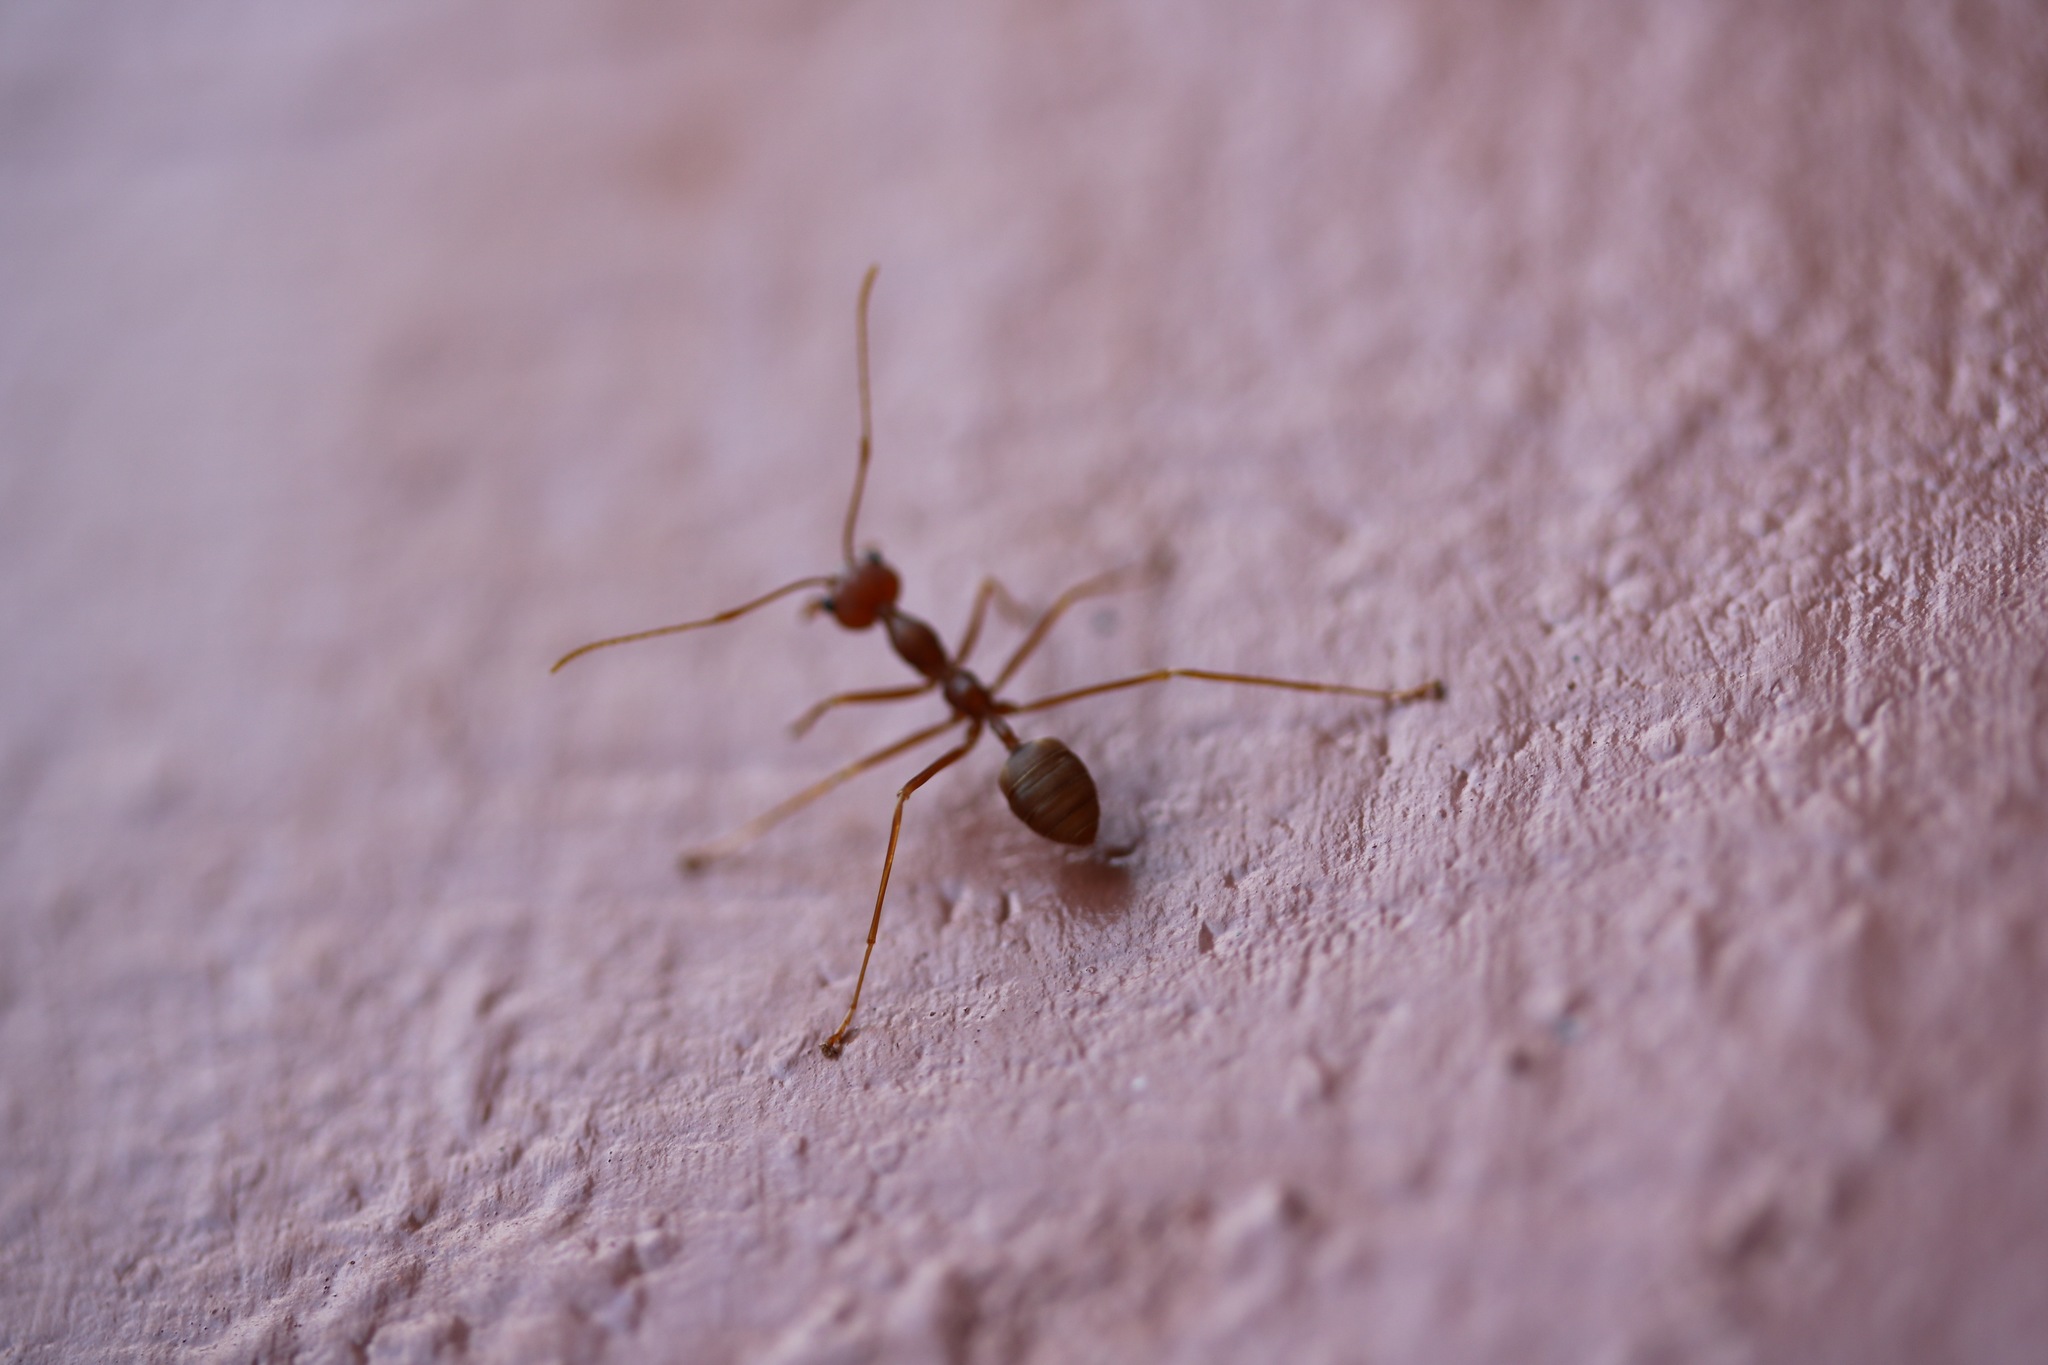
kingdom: Animalia
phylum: Arthropoda
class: Insecta
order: Hymenoptera
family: Formicidae
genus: Oecophylla
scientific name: Oecophylla smaragdina
